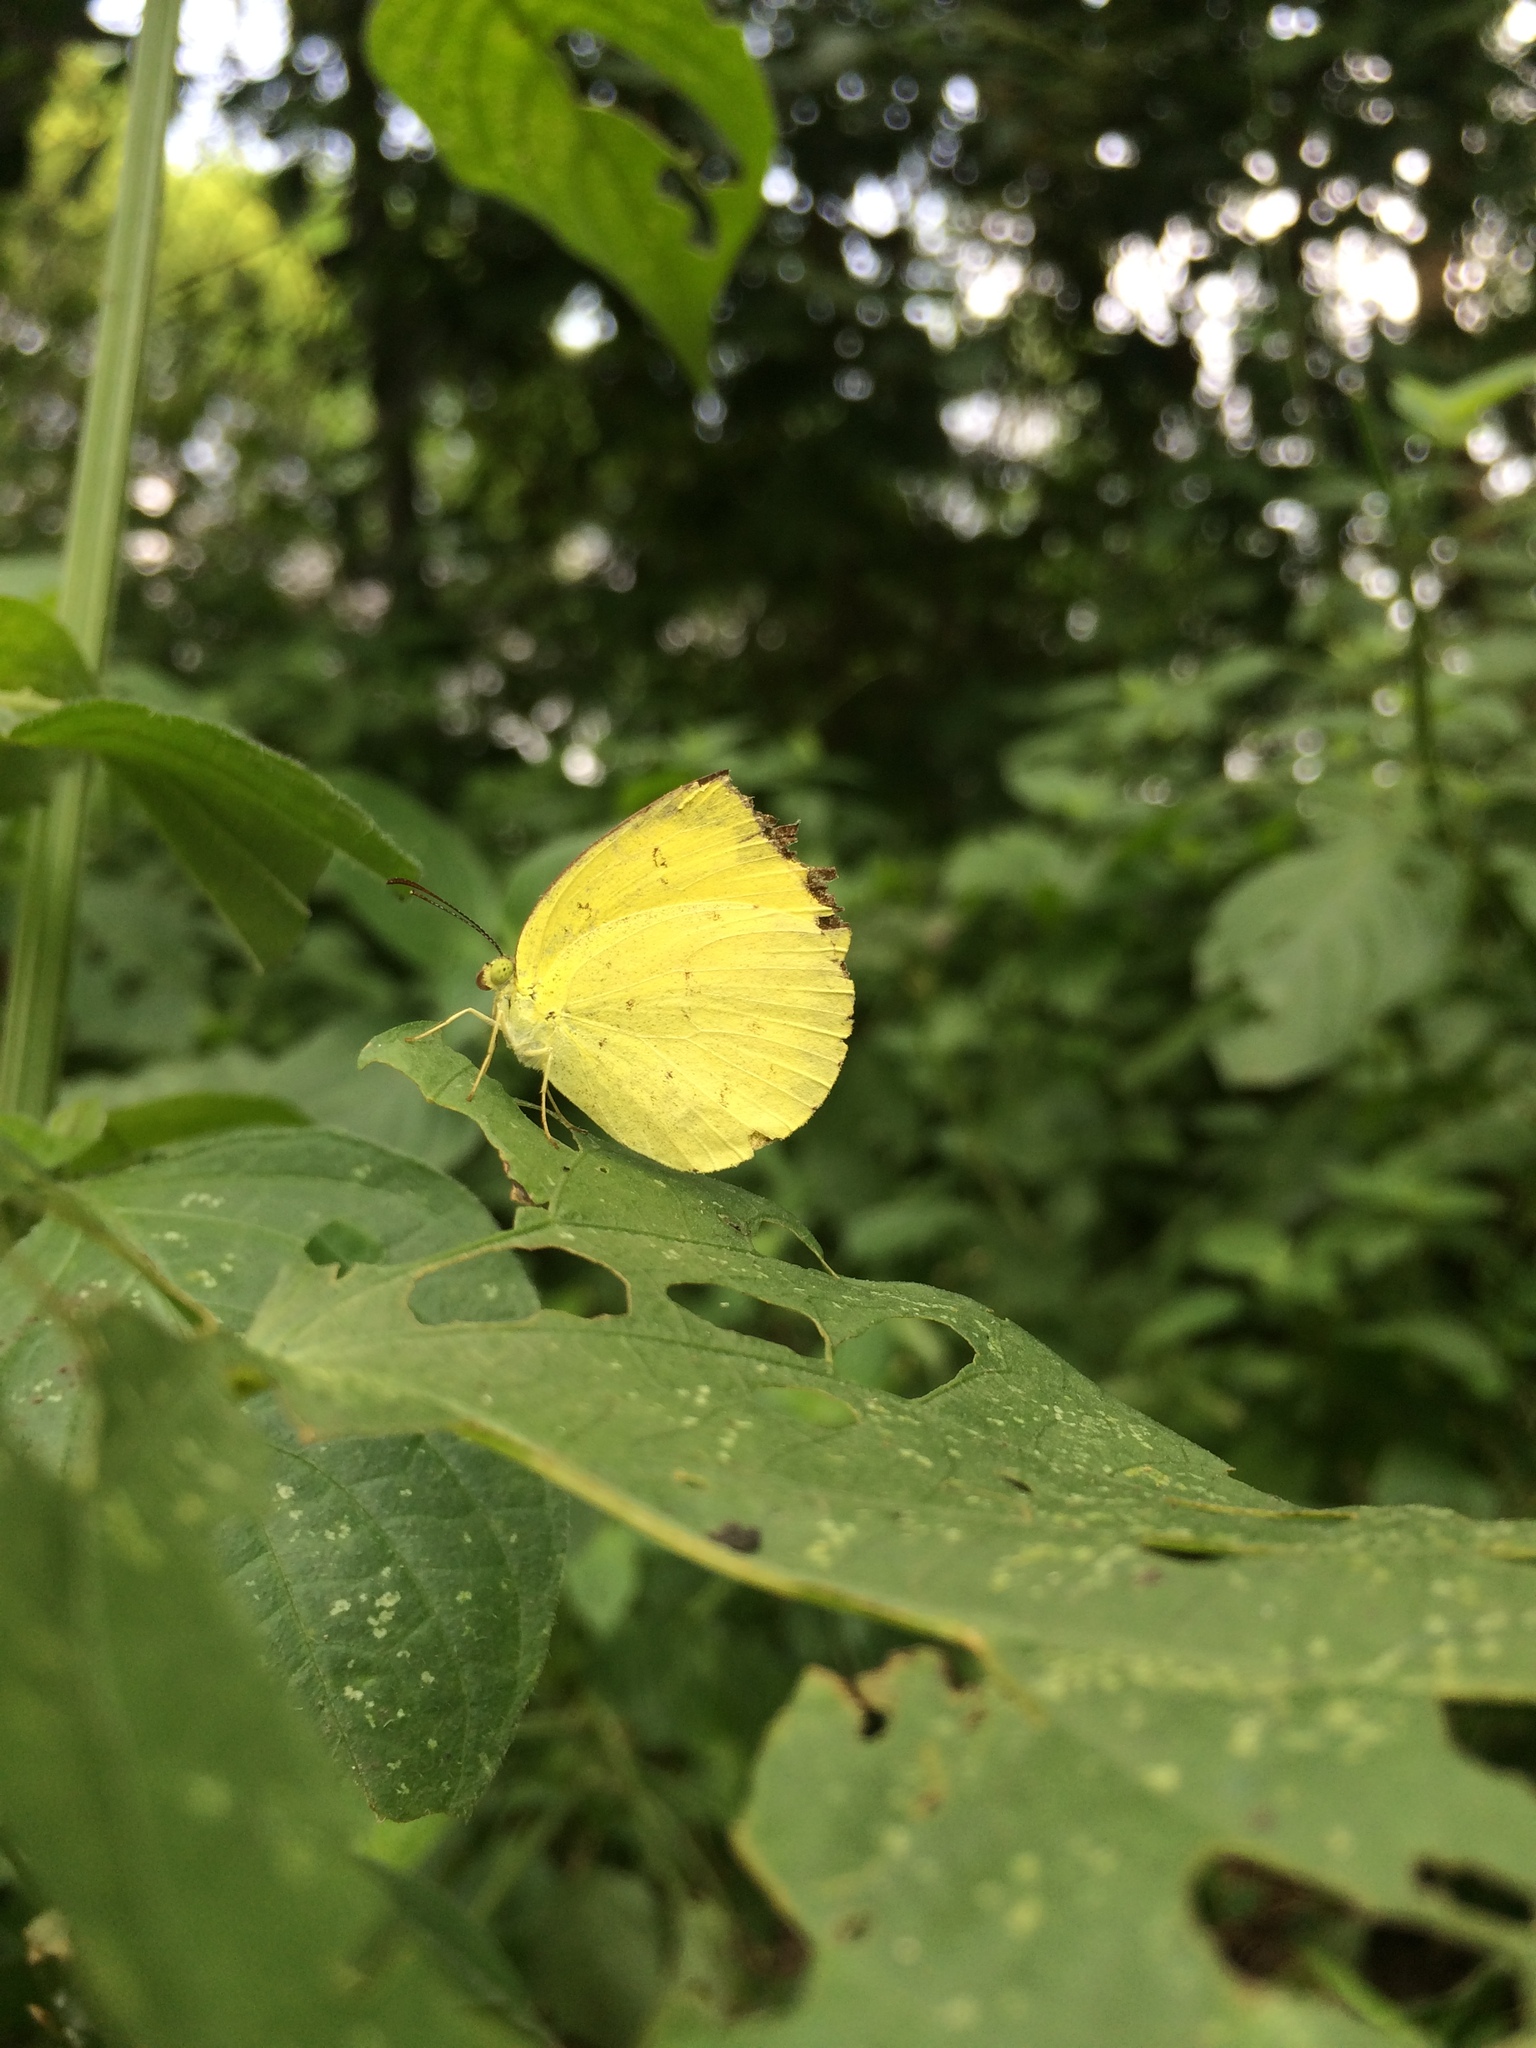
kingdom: Animalia
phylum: Arthropoda
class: Insecta
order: Lepidoptera
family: Pieridae
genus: Eurema
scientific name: Eurema hecabe
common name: Pale grass yellow
